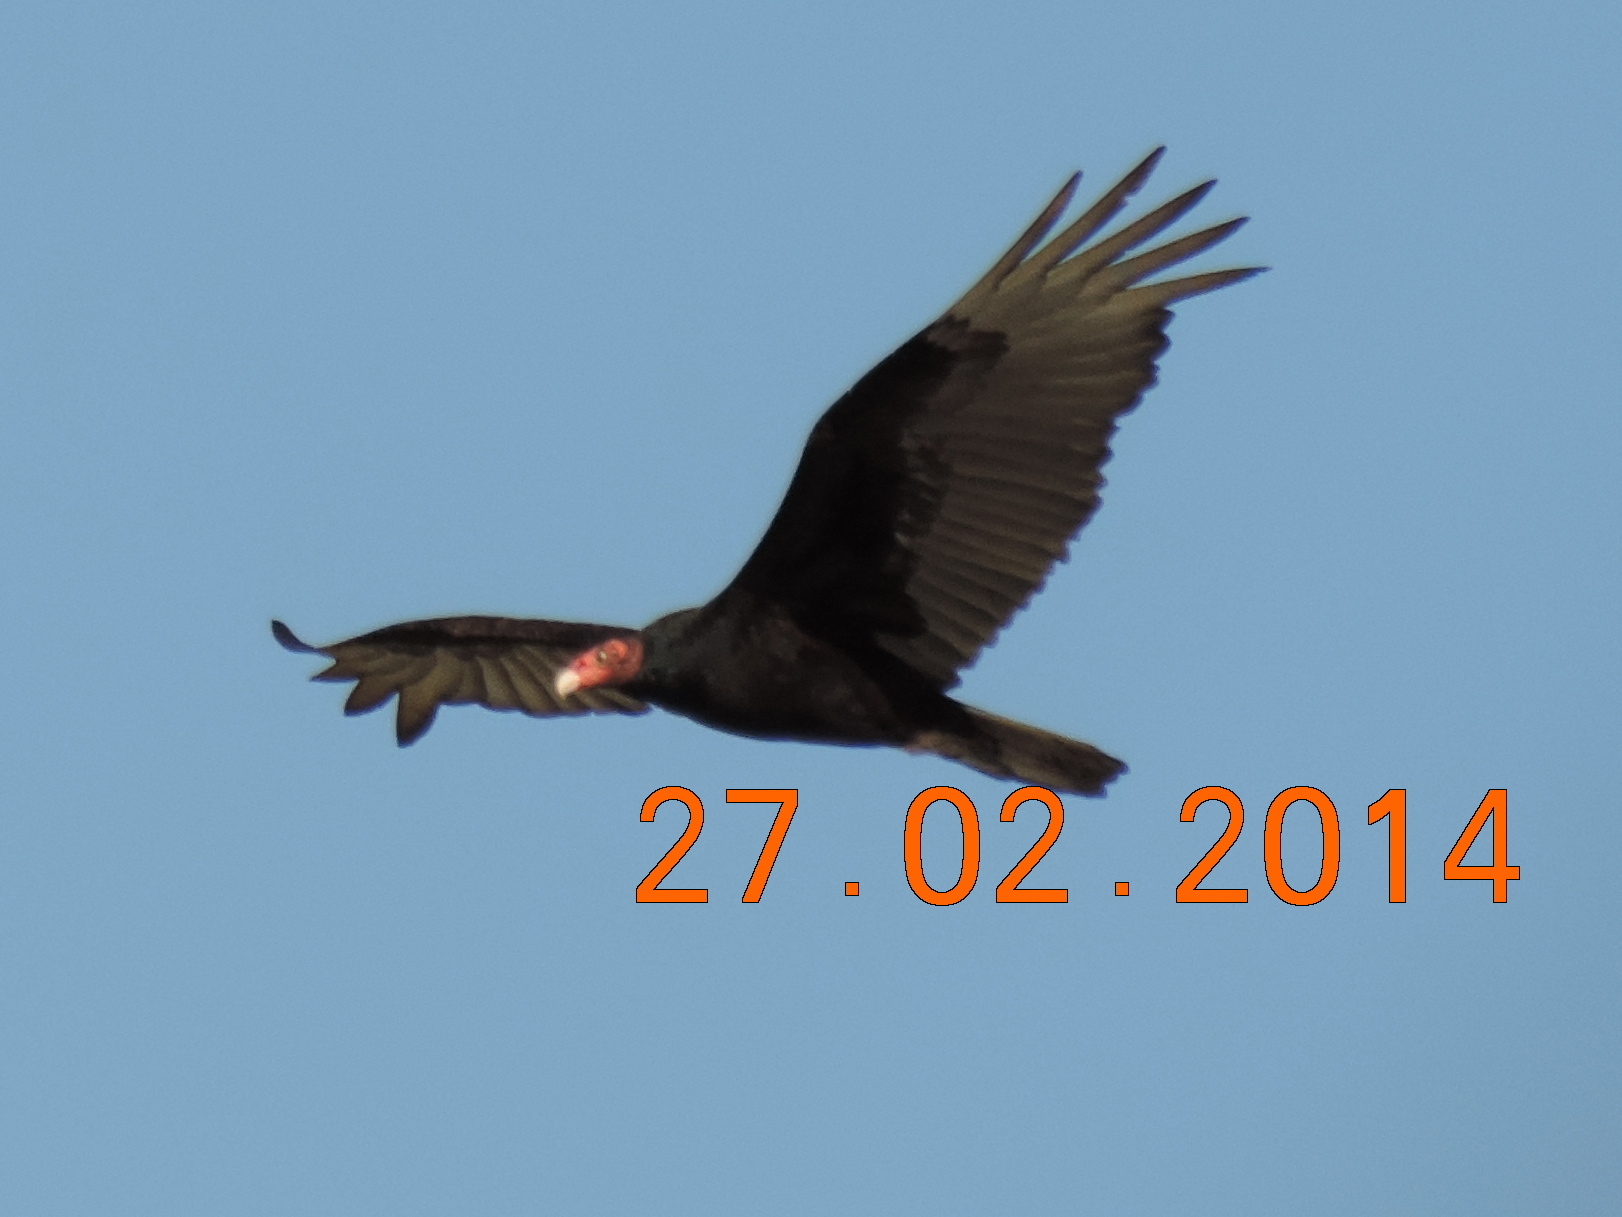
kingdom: Animalia
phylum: Chordata
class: Aves
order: Accipitriformes
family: Cathartidae
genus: Cathartes
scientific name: Cathartes aura
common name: Turkey vulture
